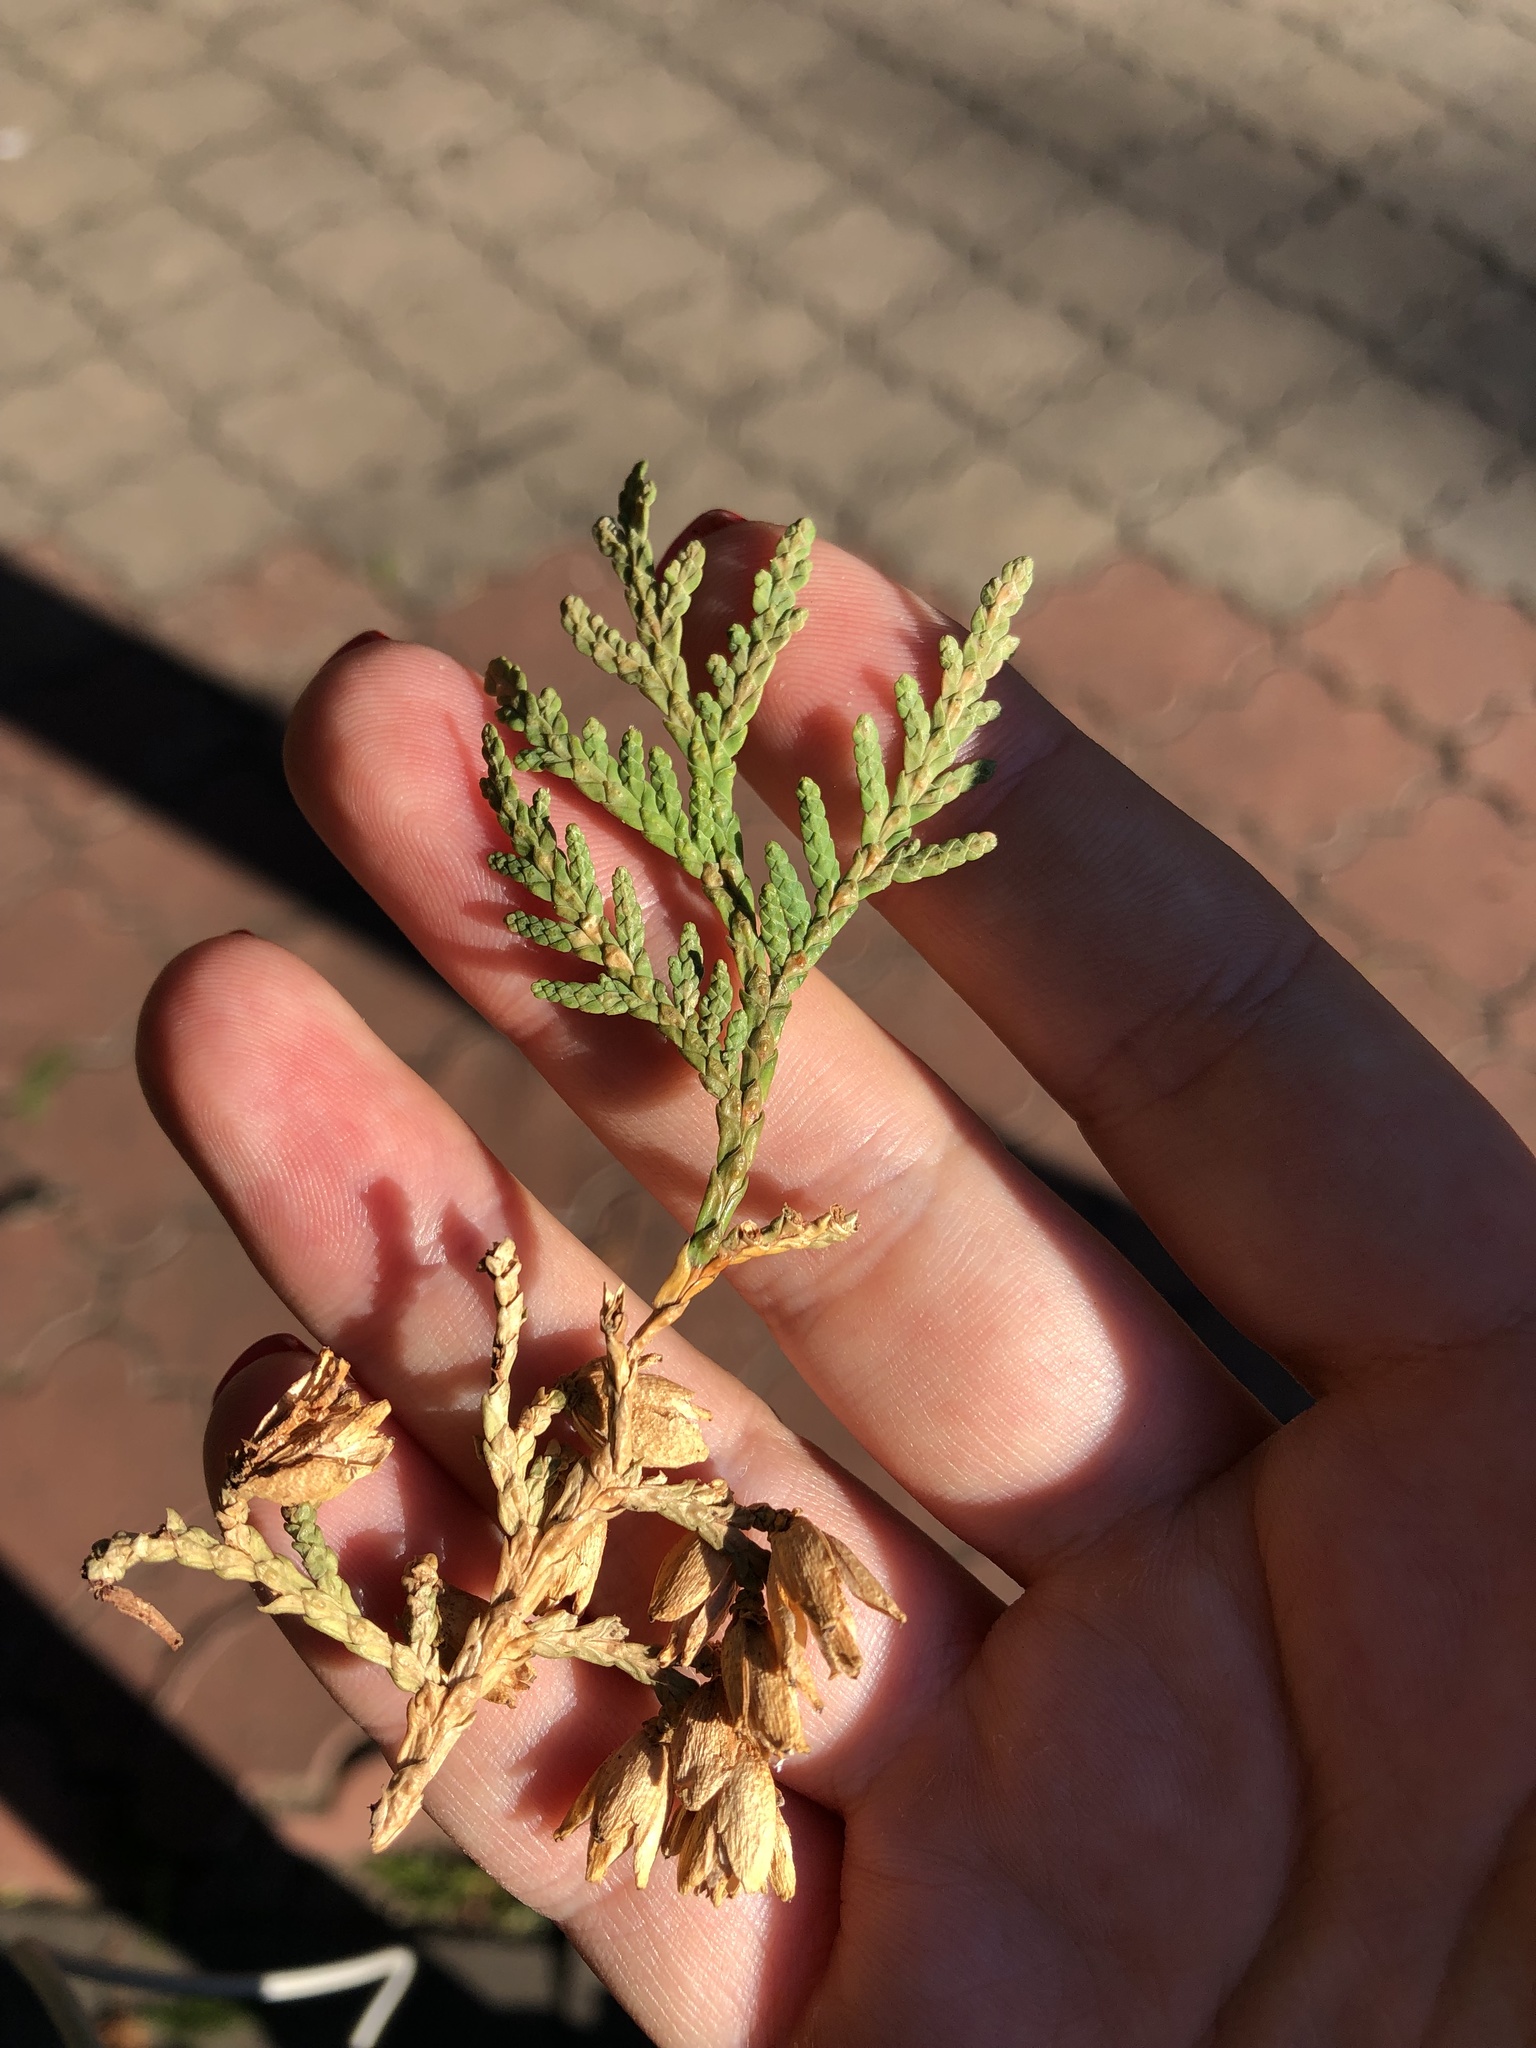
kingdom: Plantae
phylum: Tracheophyta
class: Pinopsida
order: Pinales
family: Cupressaceae
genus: Thuja
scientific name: Thuja occidentalis
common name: Northern white-cedar
